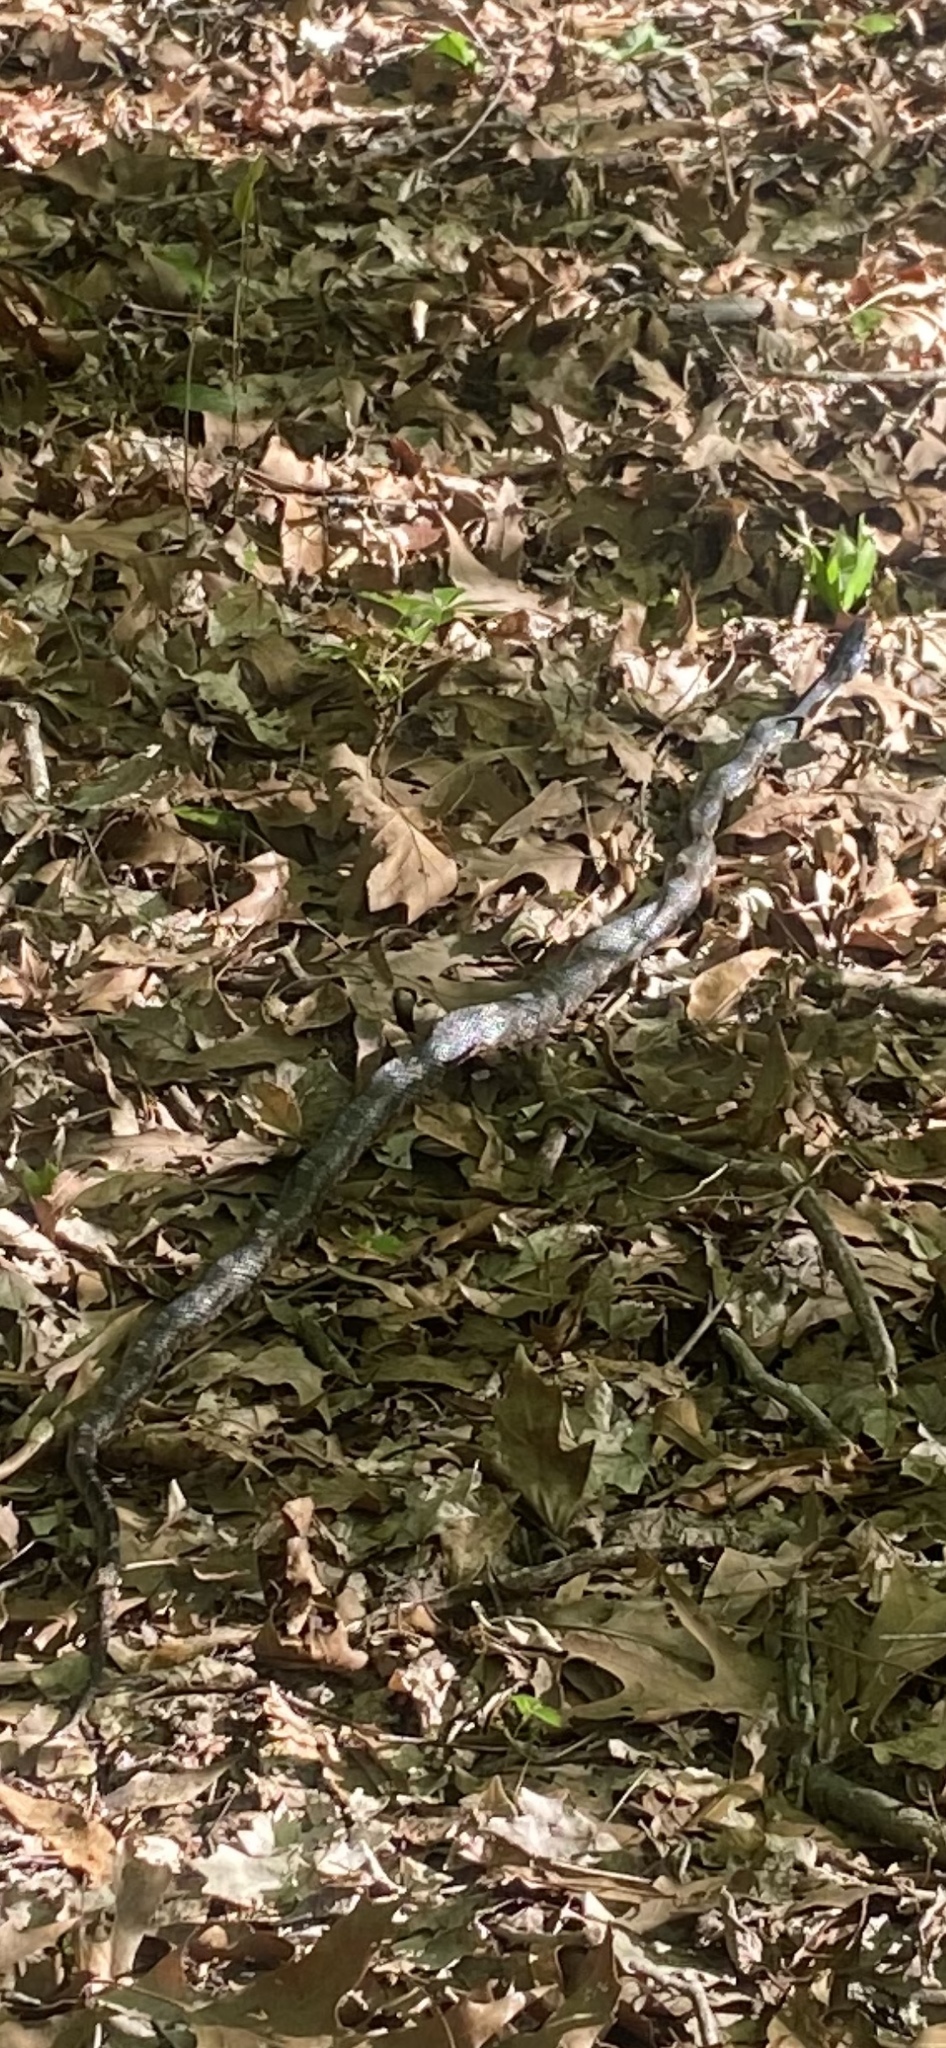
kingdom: Animalia
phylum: Chordata
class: Squamata
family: Colubridae
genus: Pantherophis
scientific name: Pantherophis obsoletus
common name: Black rat snake
